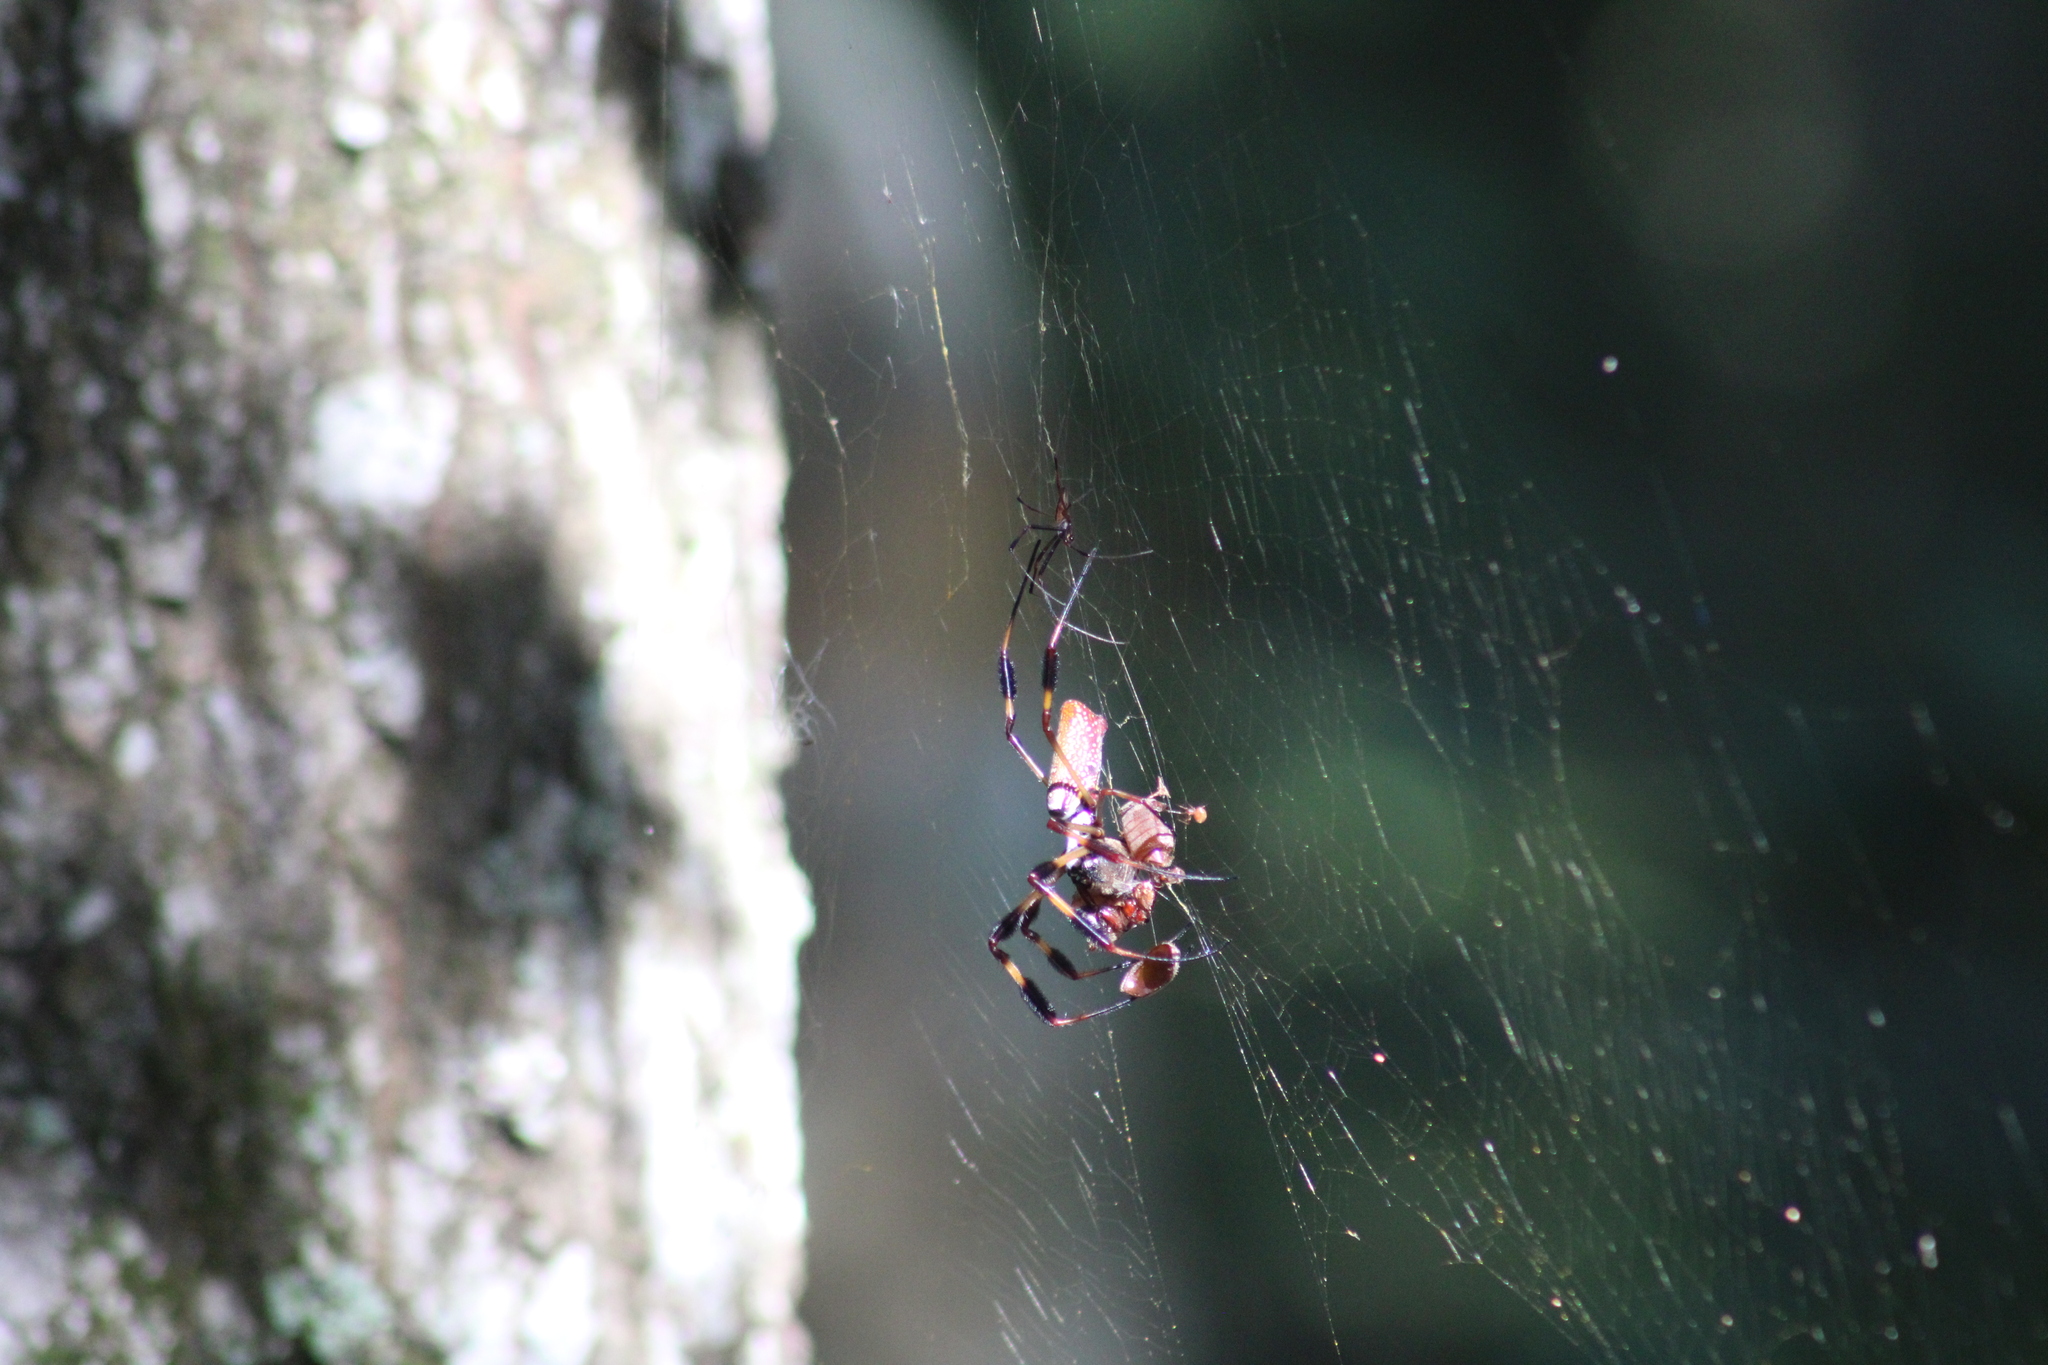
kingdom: Animalia
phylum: Arthropoda
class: Arachnida
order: Araneae
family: Araneidae
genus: Trichonephila
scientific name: Trichonephila clavipes
